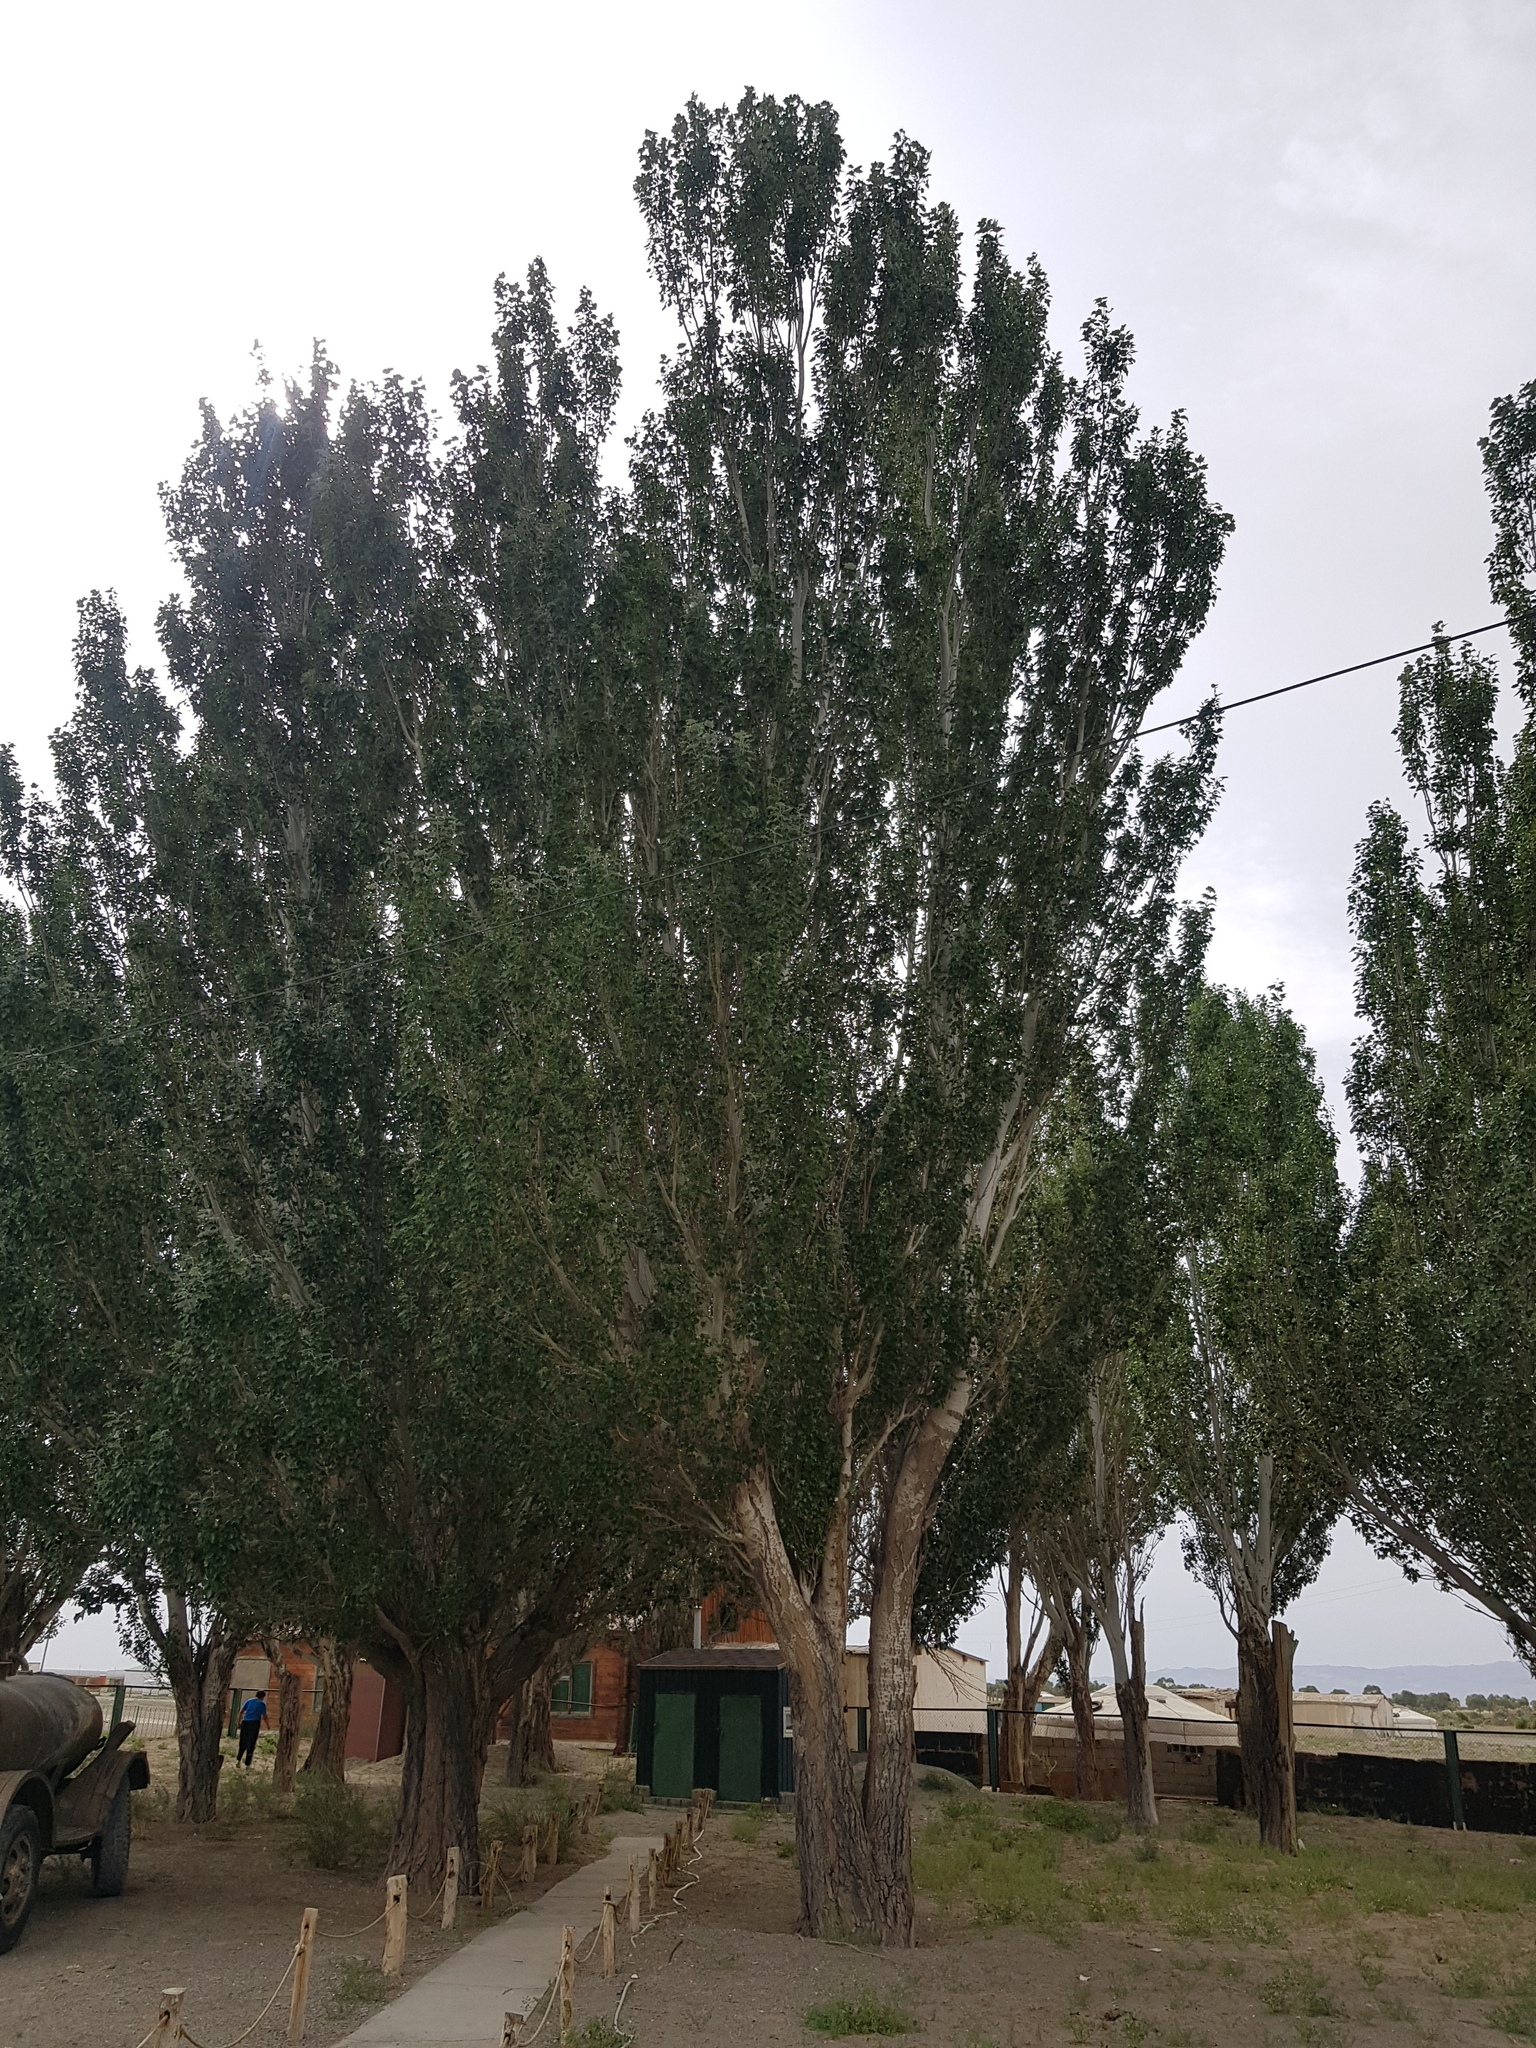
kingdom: Plantae
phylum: Tracheophyta
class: Magnoliopsida
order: Malpighiales
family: Salicaceae
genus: Populus
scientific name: Populus alba
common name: White poplar
